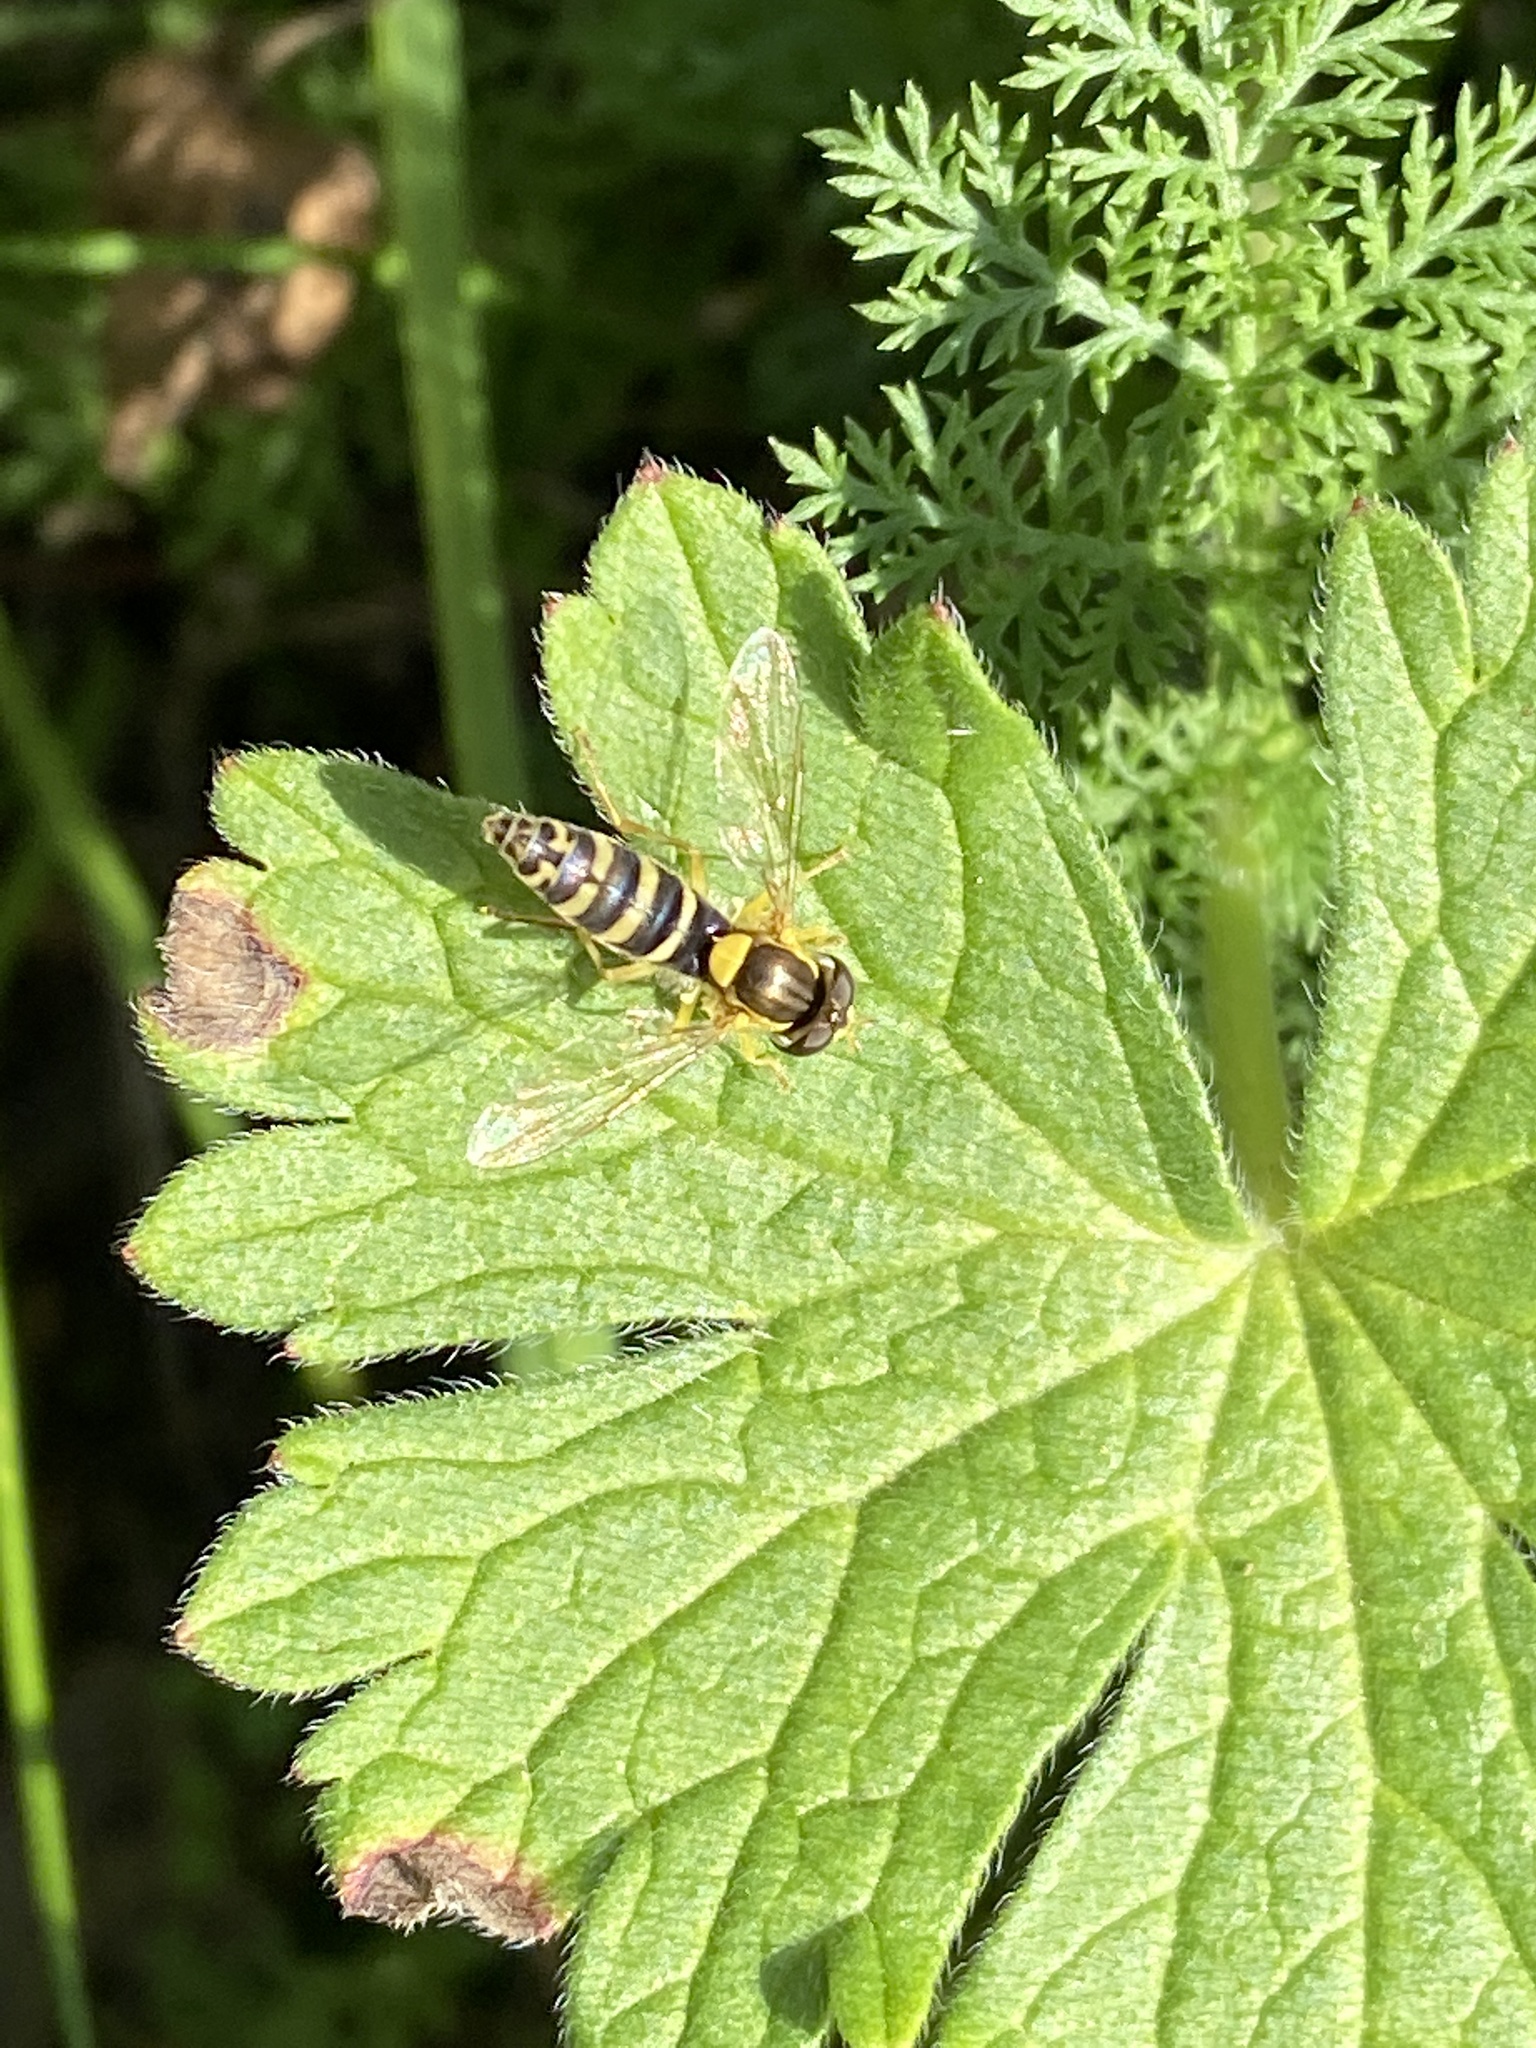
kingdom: Animalia
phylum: Arthropoda
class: Insecta
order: Diptera
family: Syrphidae
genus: Sphaerophoria
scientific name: Sphaerophoria
